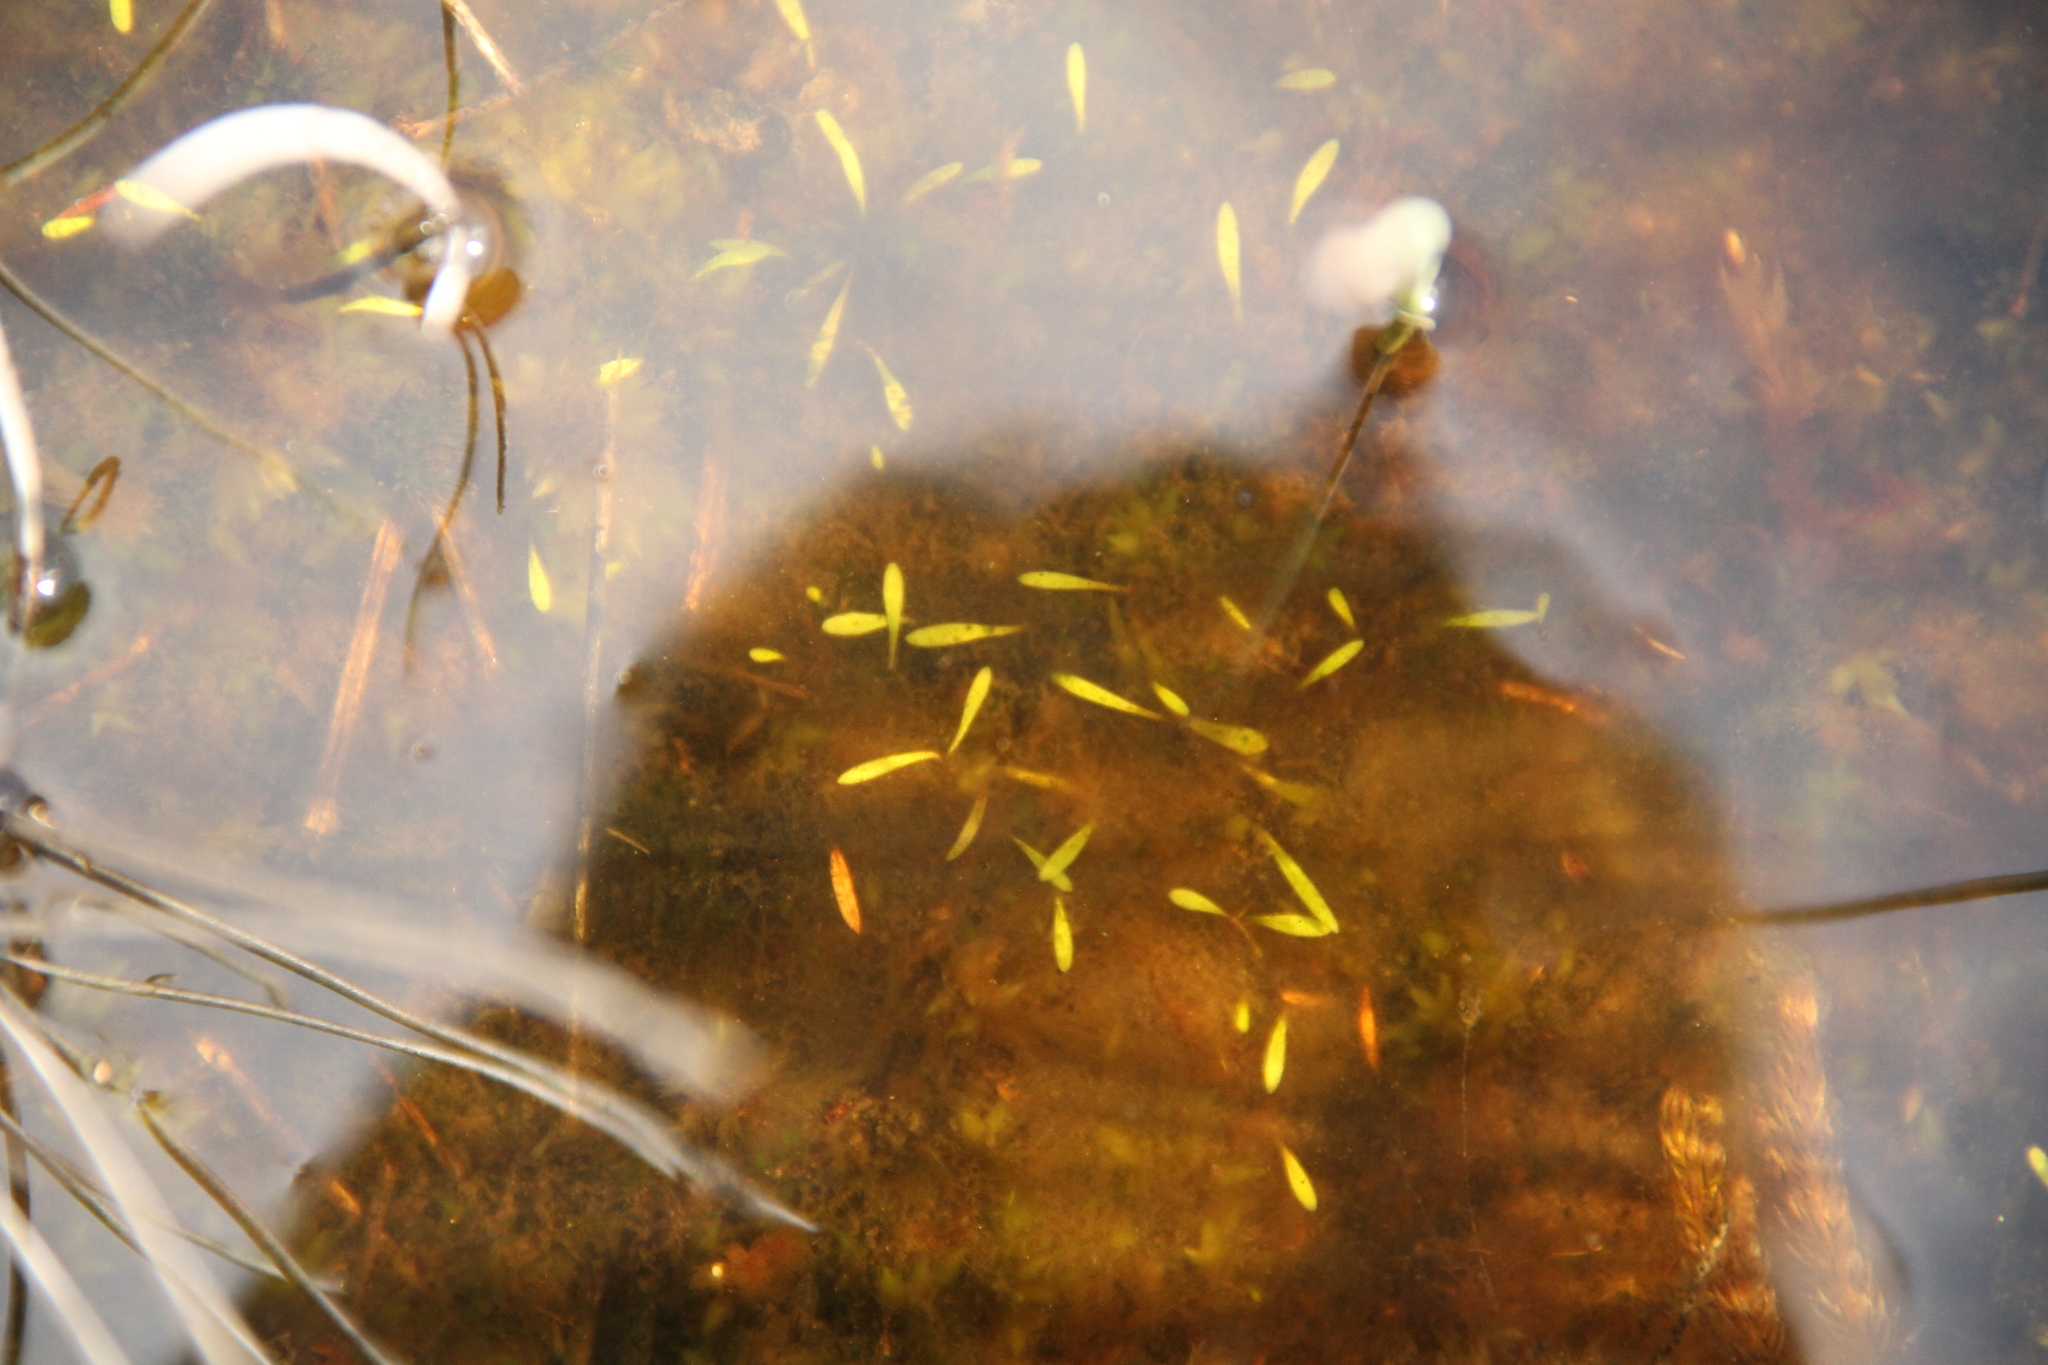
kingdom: Plantae
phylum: Tracheophyta
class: Magnoliopsida
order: Lamiales
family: Lentibulariaceae
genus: Utricularia
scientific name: Utricularia dichotoma
